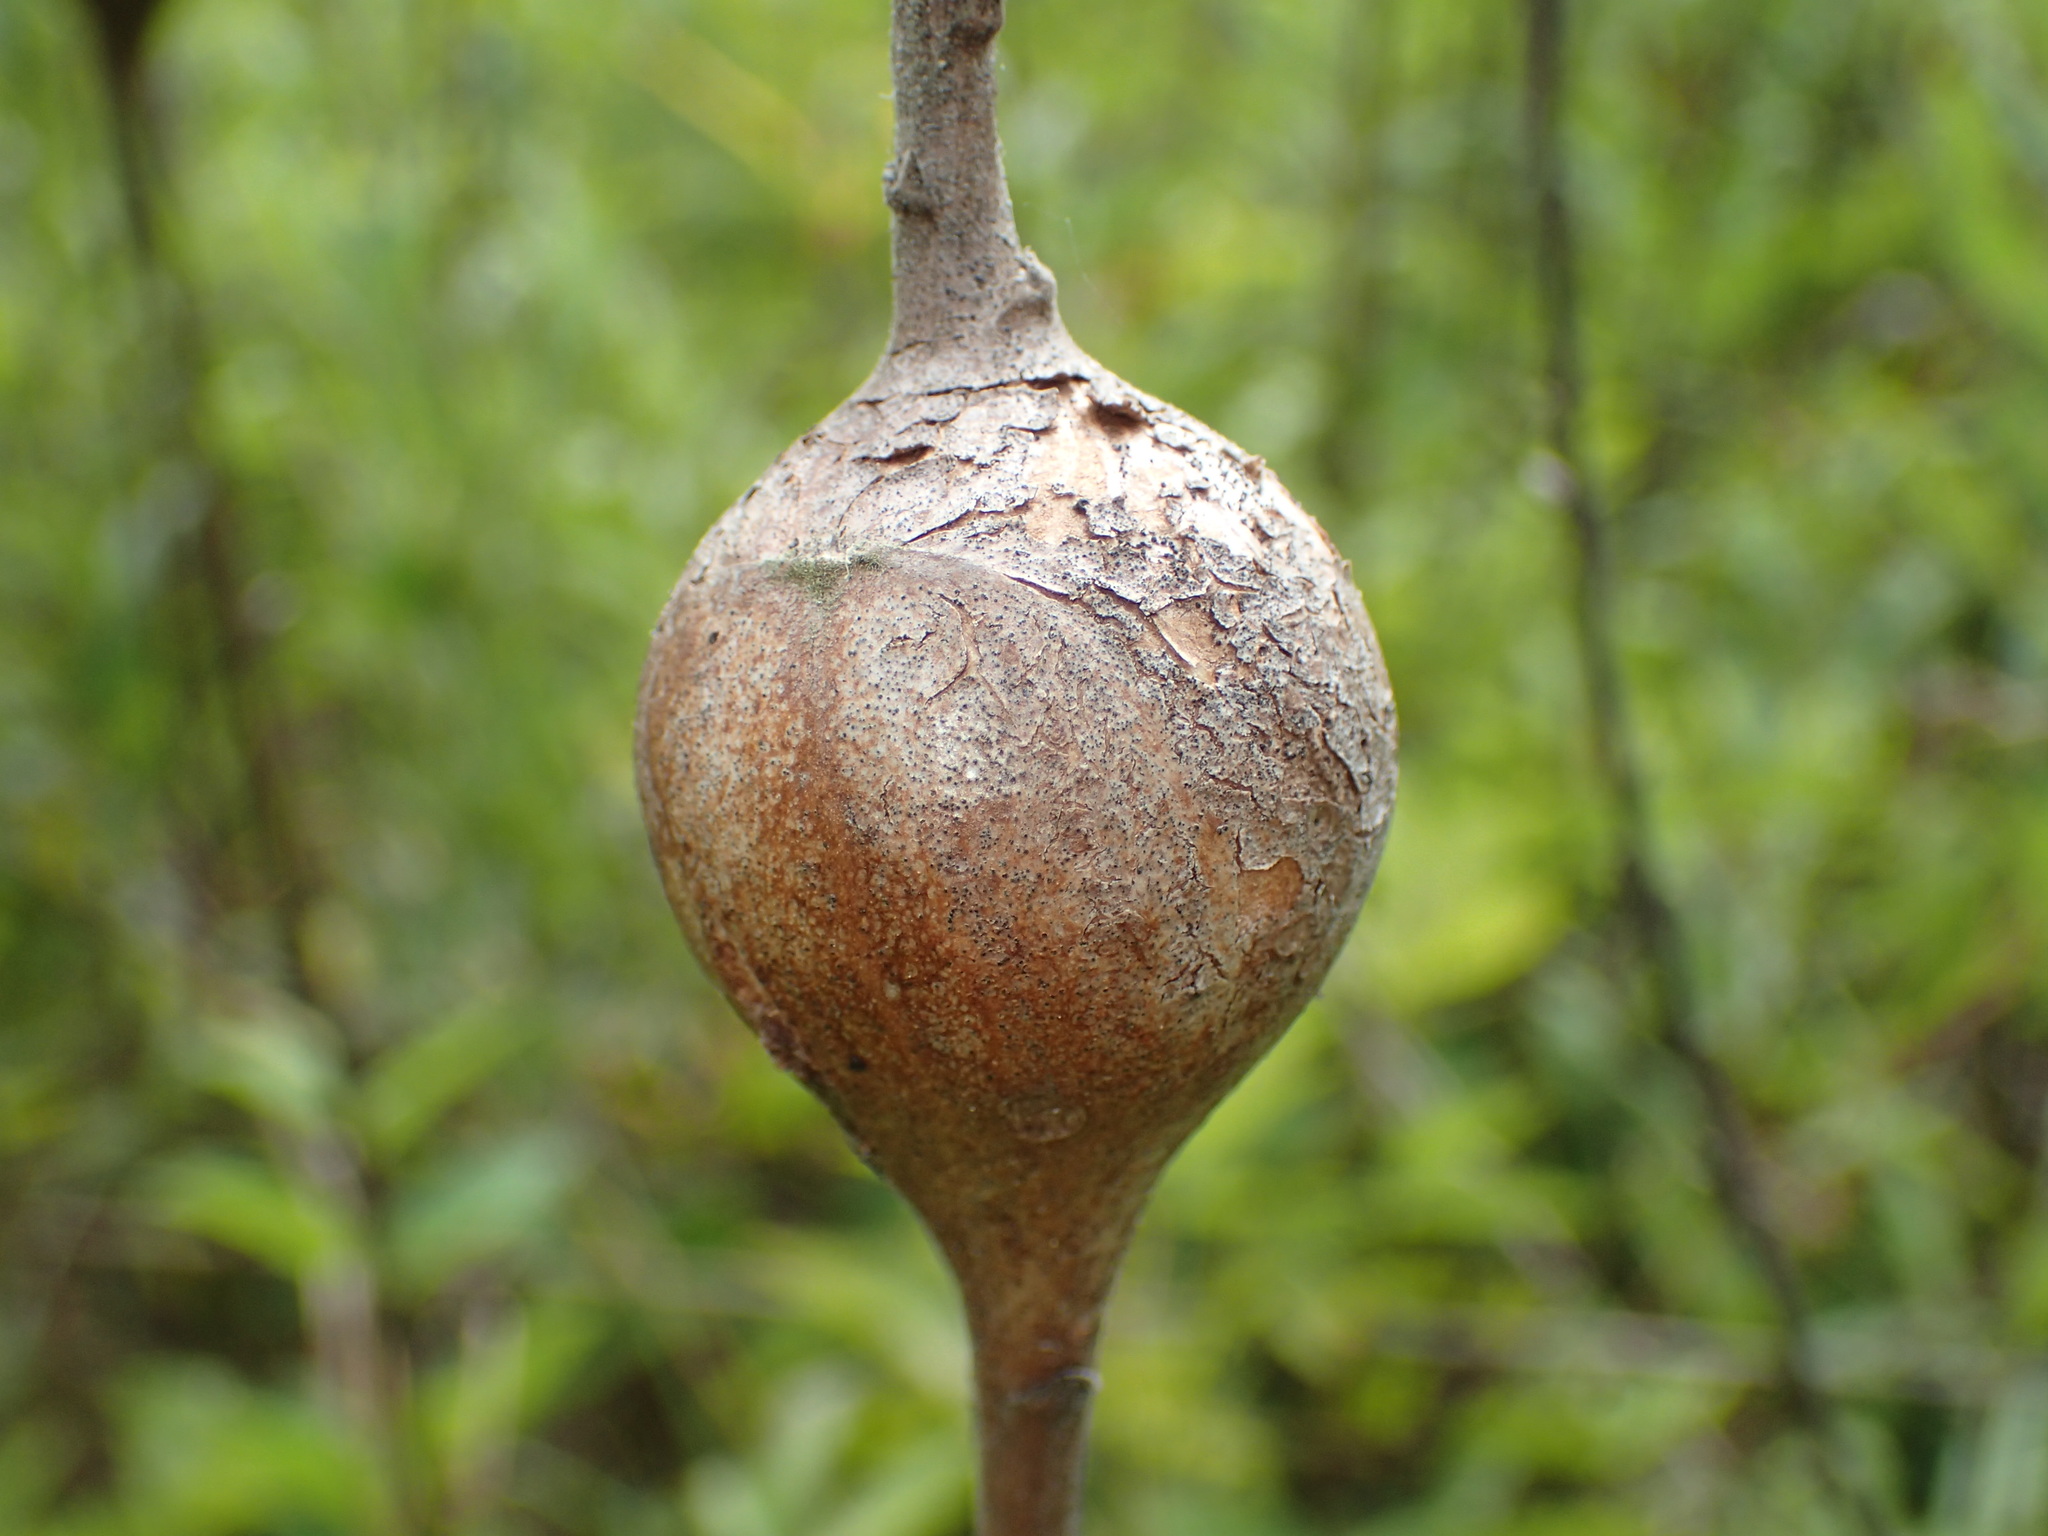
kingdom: Animalia
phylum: Arthropoda
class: Insecta
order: Diptera
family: Tephritidae
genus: Eurosta
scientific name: Eurosta solidaginis
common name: Goldenrod gall fly
